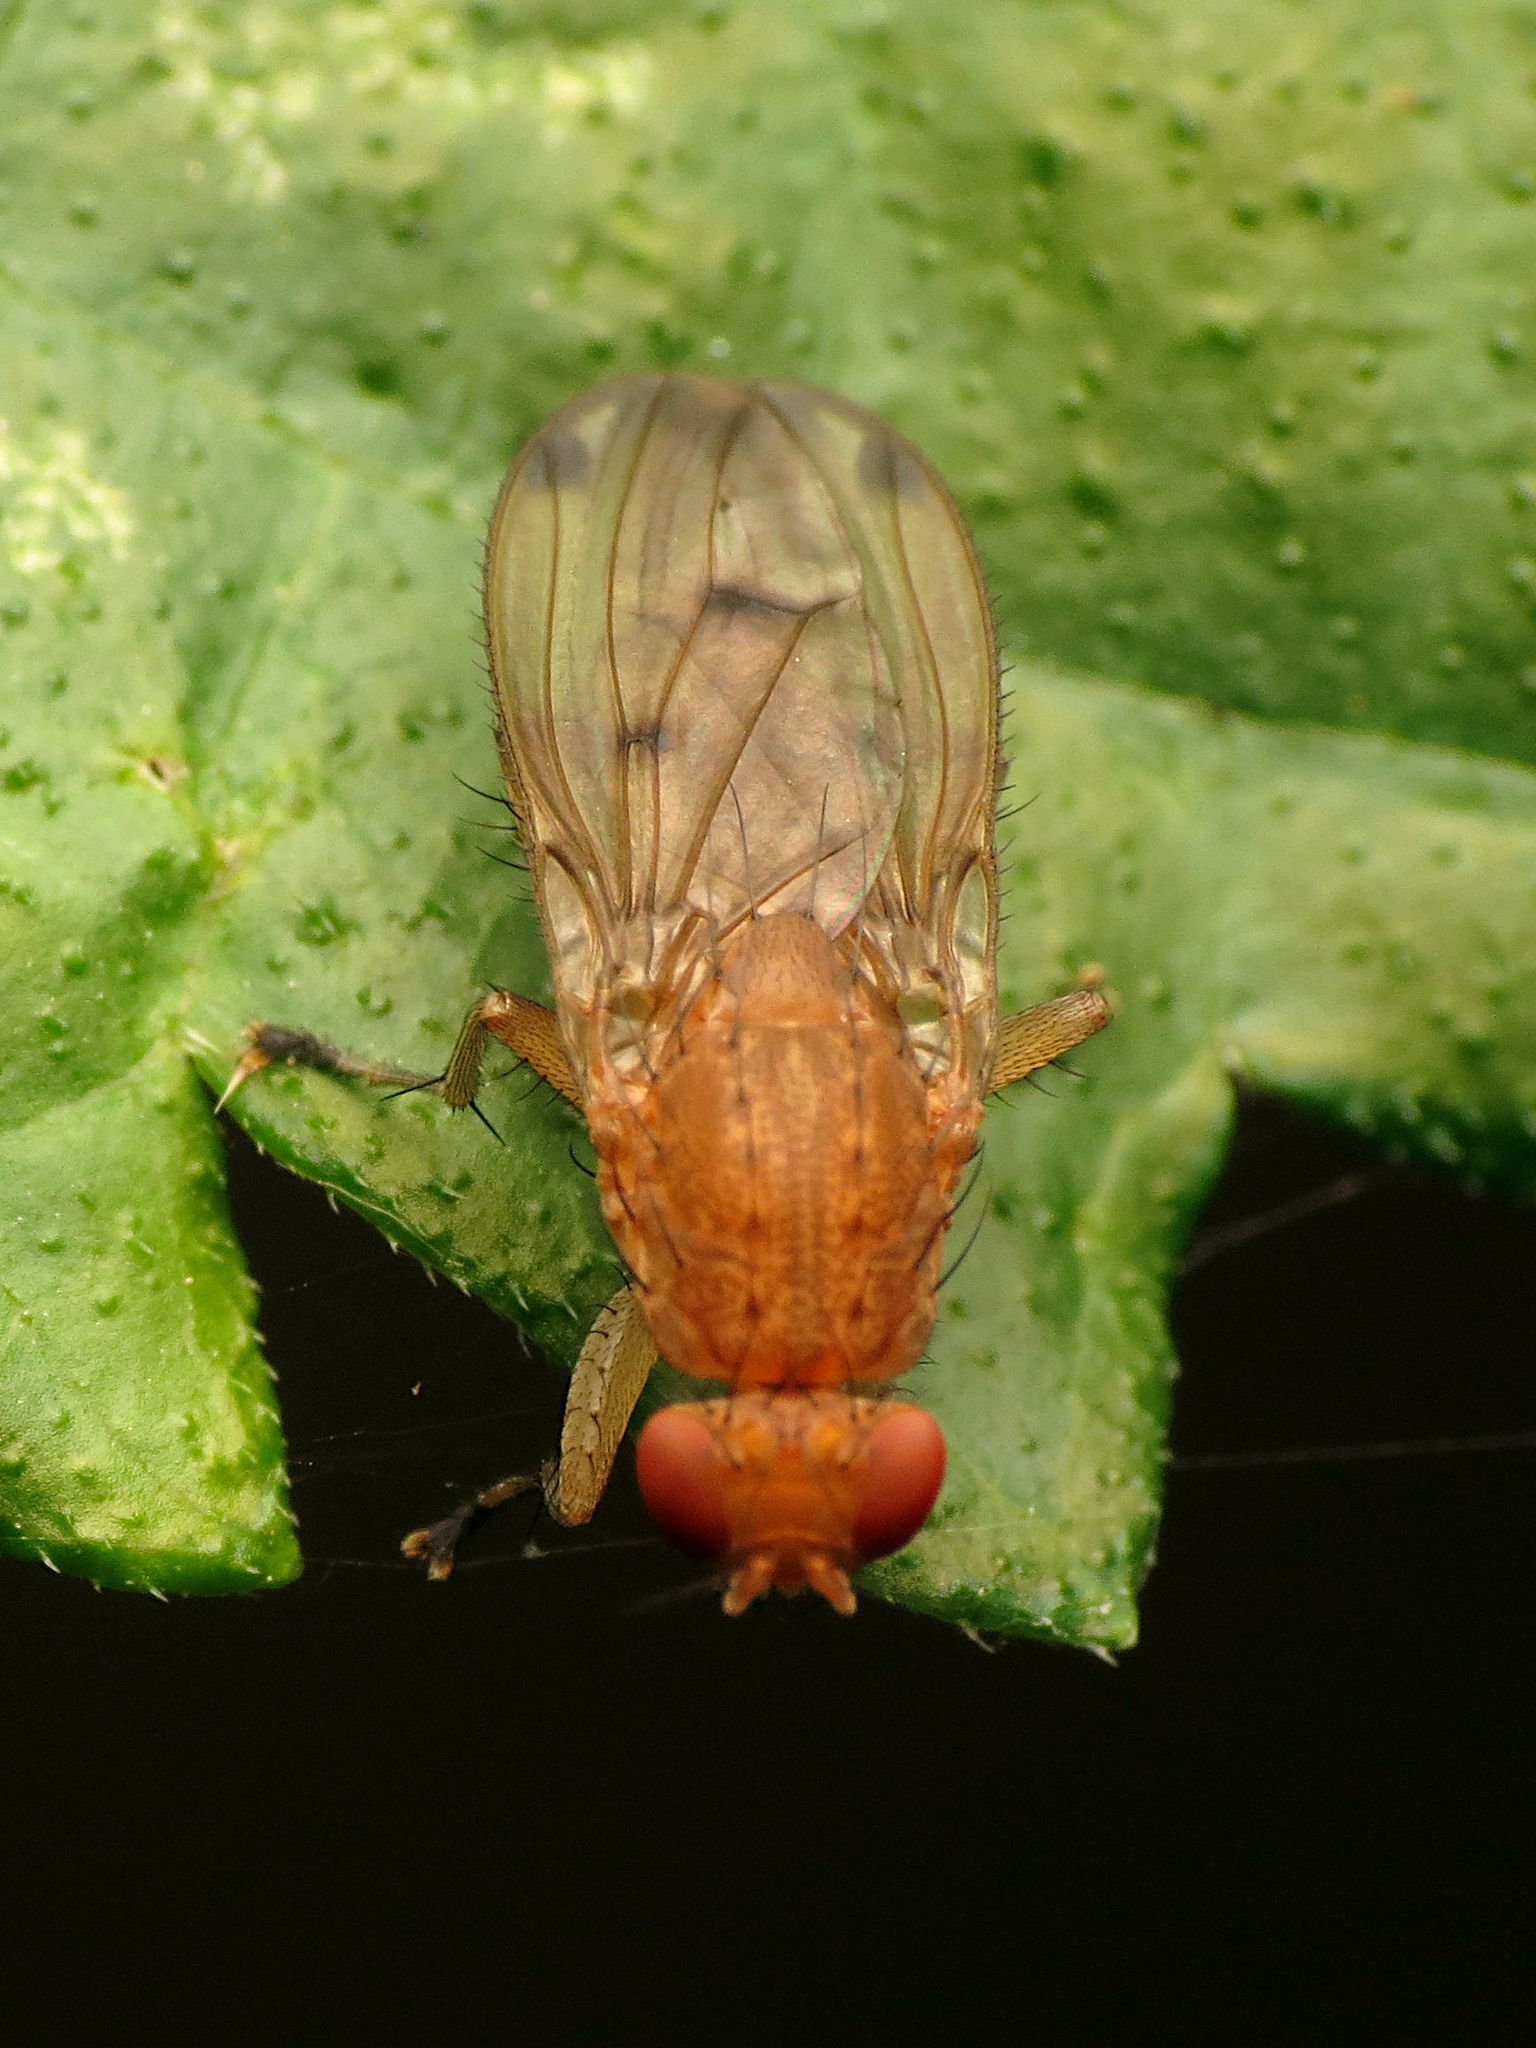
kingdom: Animalia
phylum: Arthropoda
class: Insecta
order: Diptera
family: Heleomyzidae
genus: Suillia
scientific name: Suillia quinquepunctata
